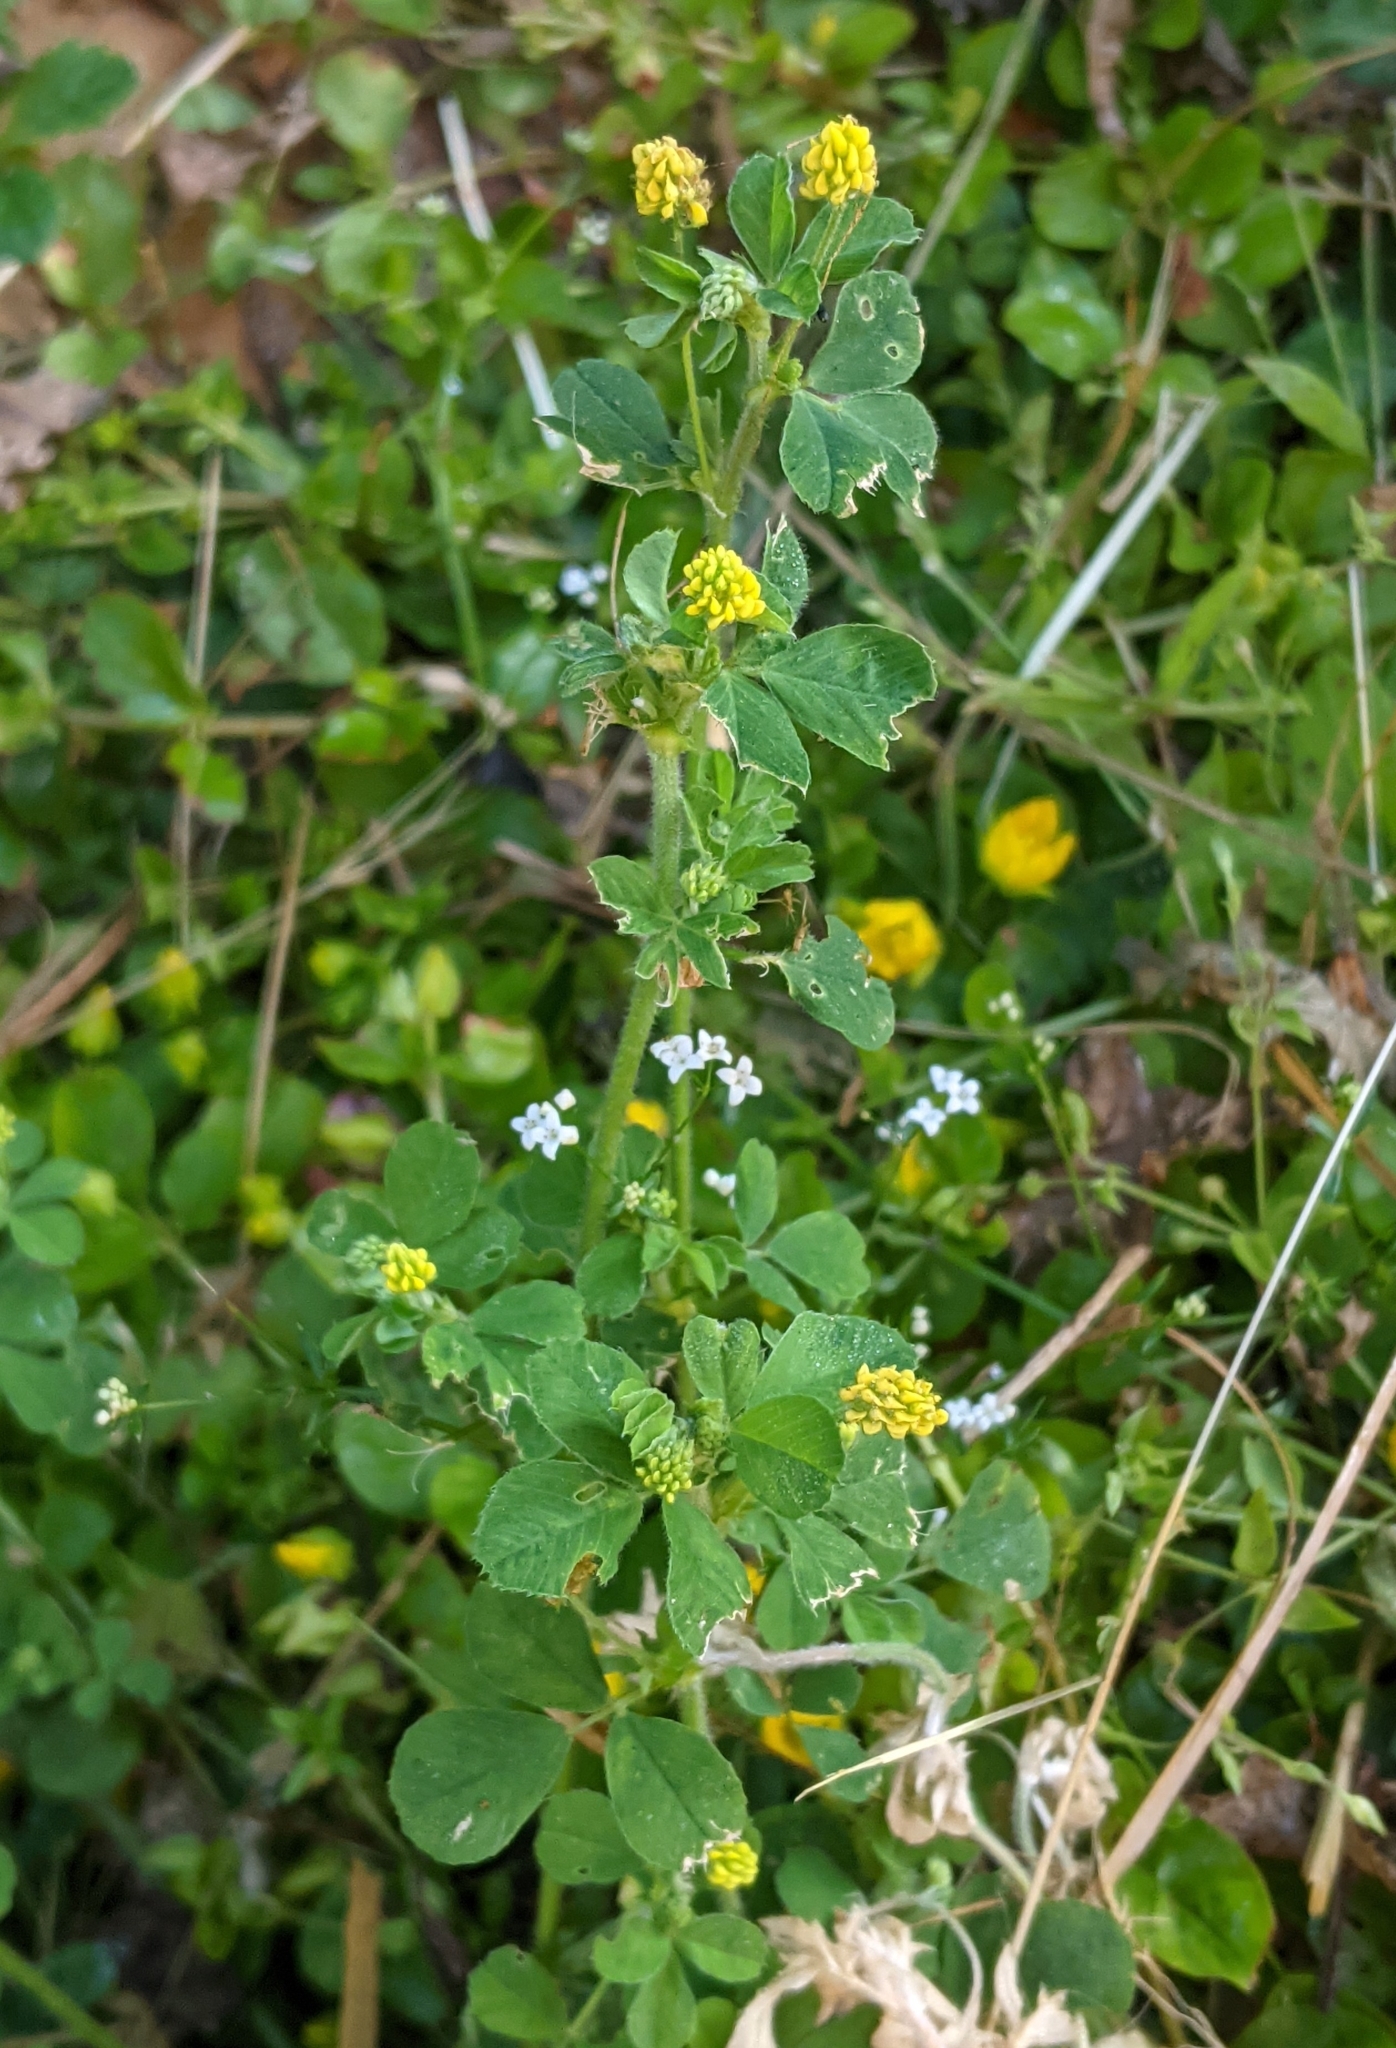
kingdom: Plantae
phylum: Tracheophyta
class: Magnoliopsida
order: Fabales
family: Fabaceae
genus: Medicago
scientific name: Medicago lupulina
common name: Black medick
